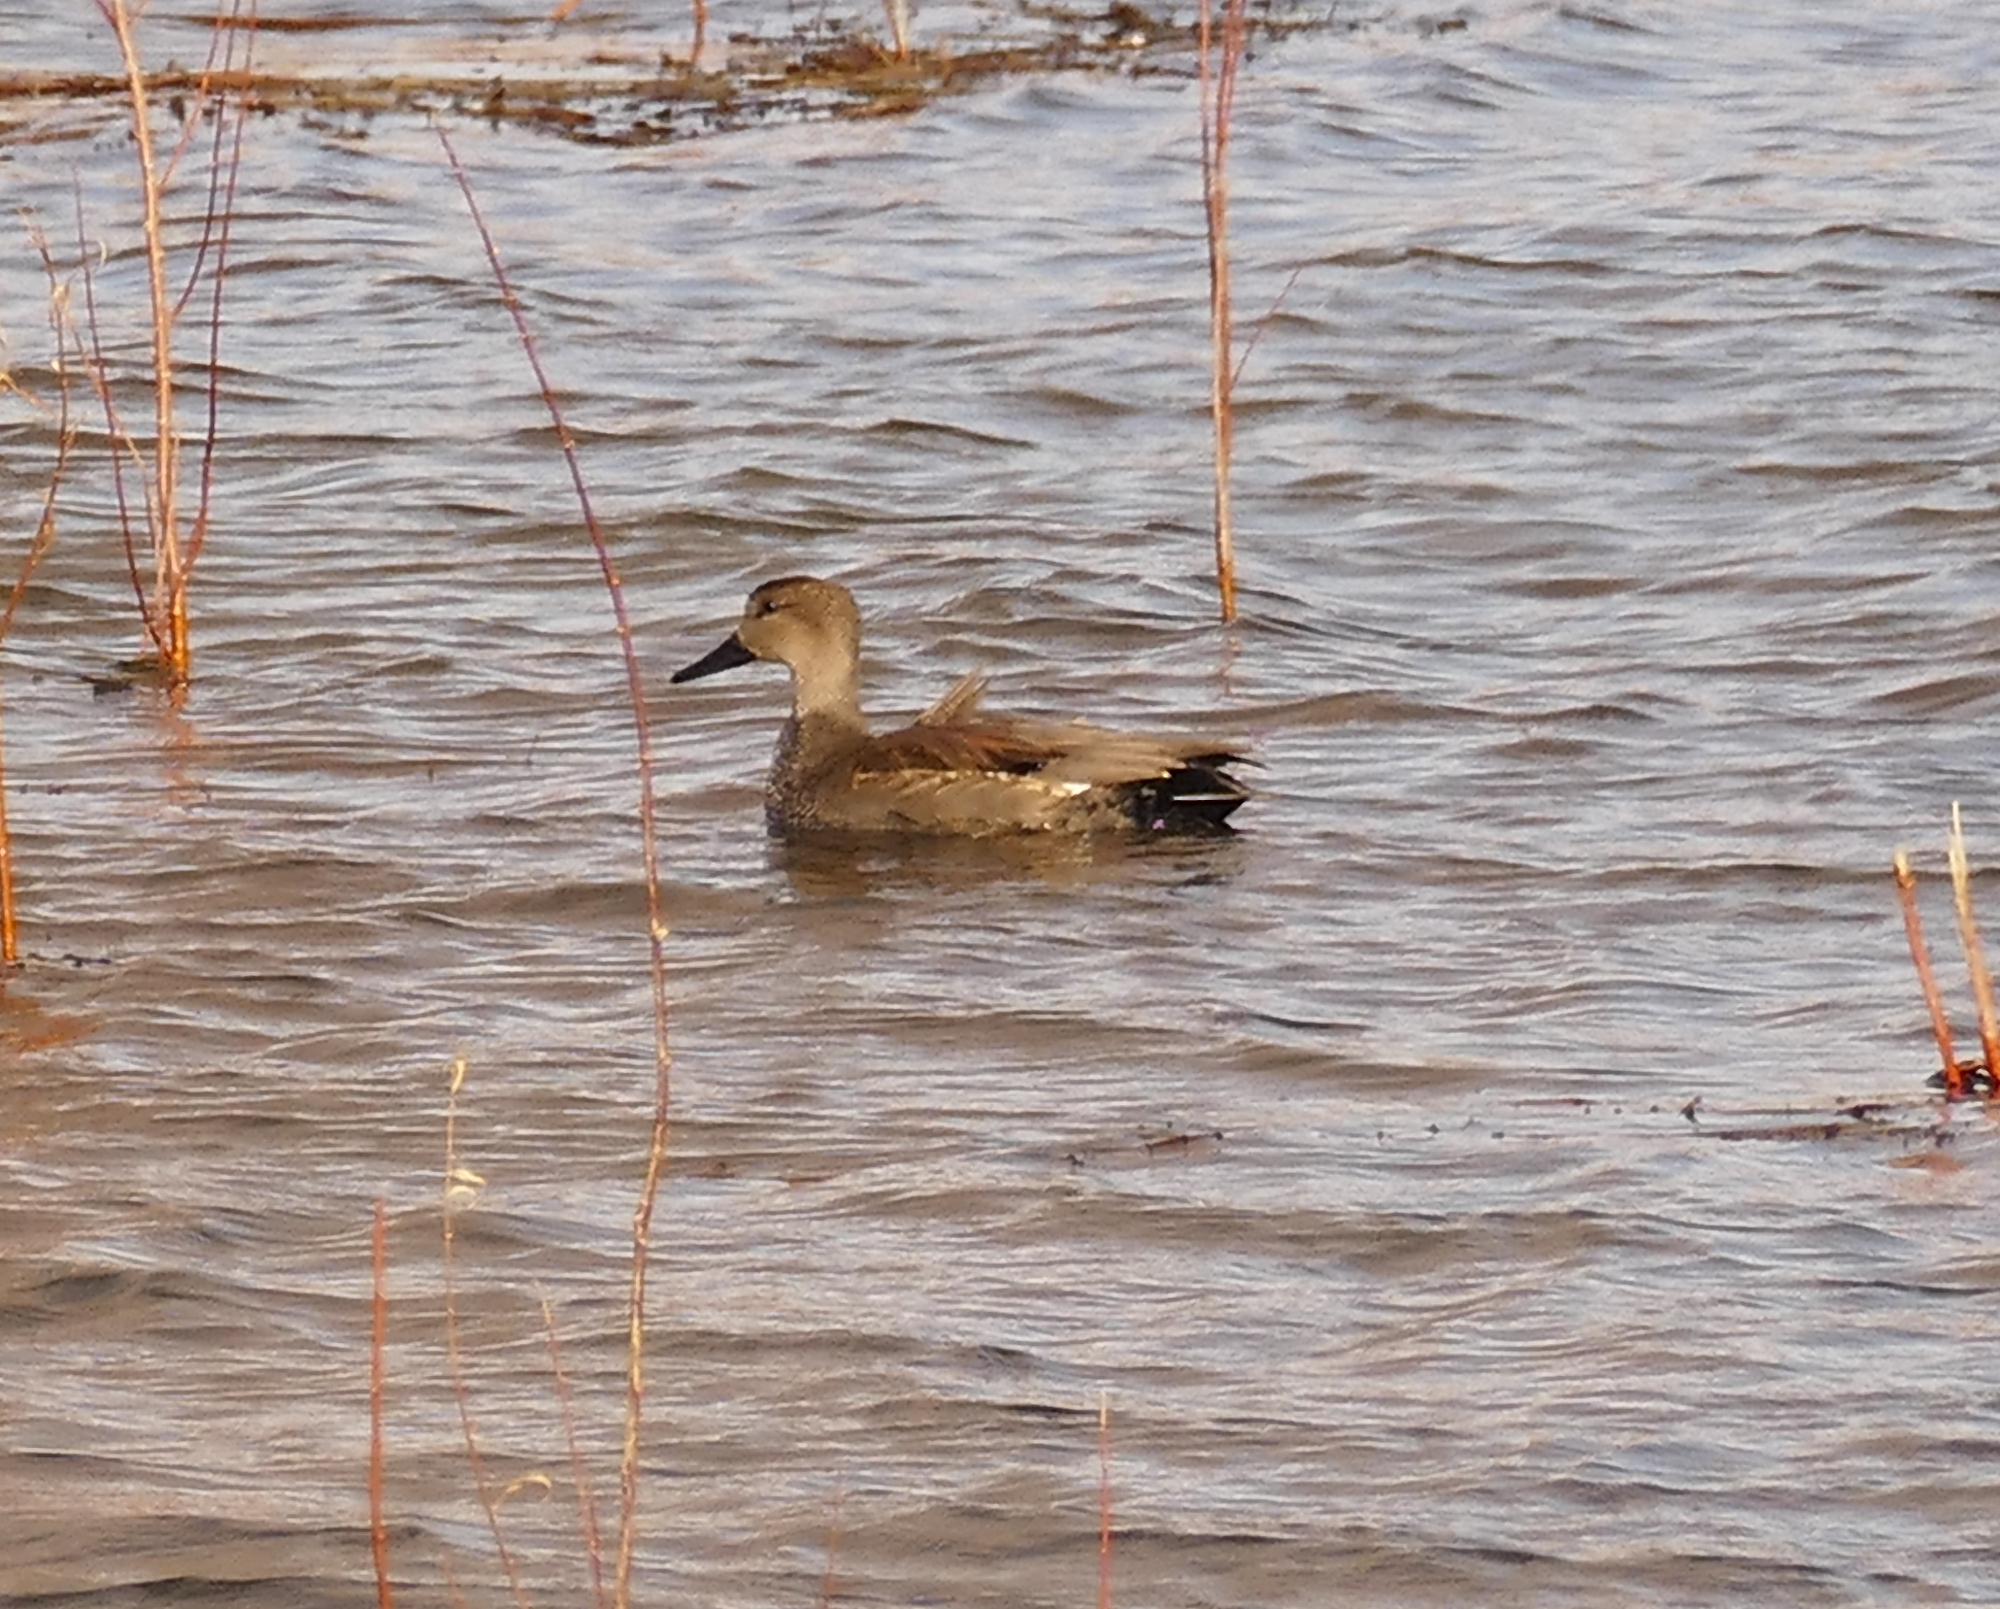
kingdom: Animalia
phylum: Chordata
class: Aves
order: Anseriformes
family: Anatidae
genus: Mareca
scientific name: Mareca strepera
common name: Gadwall
